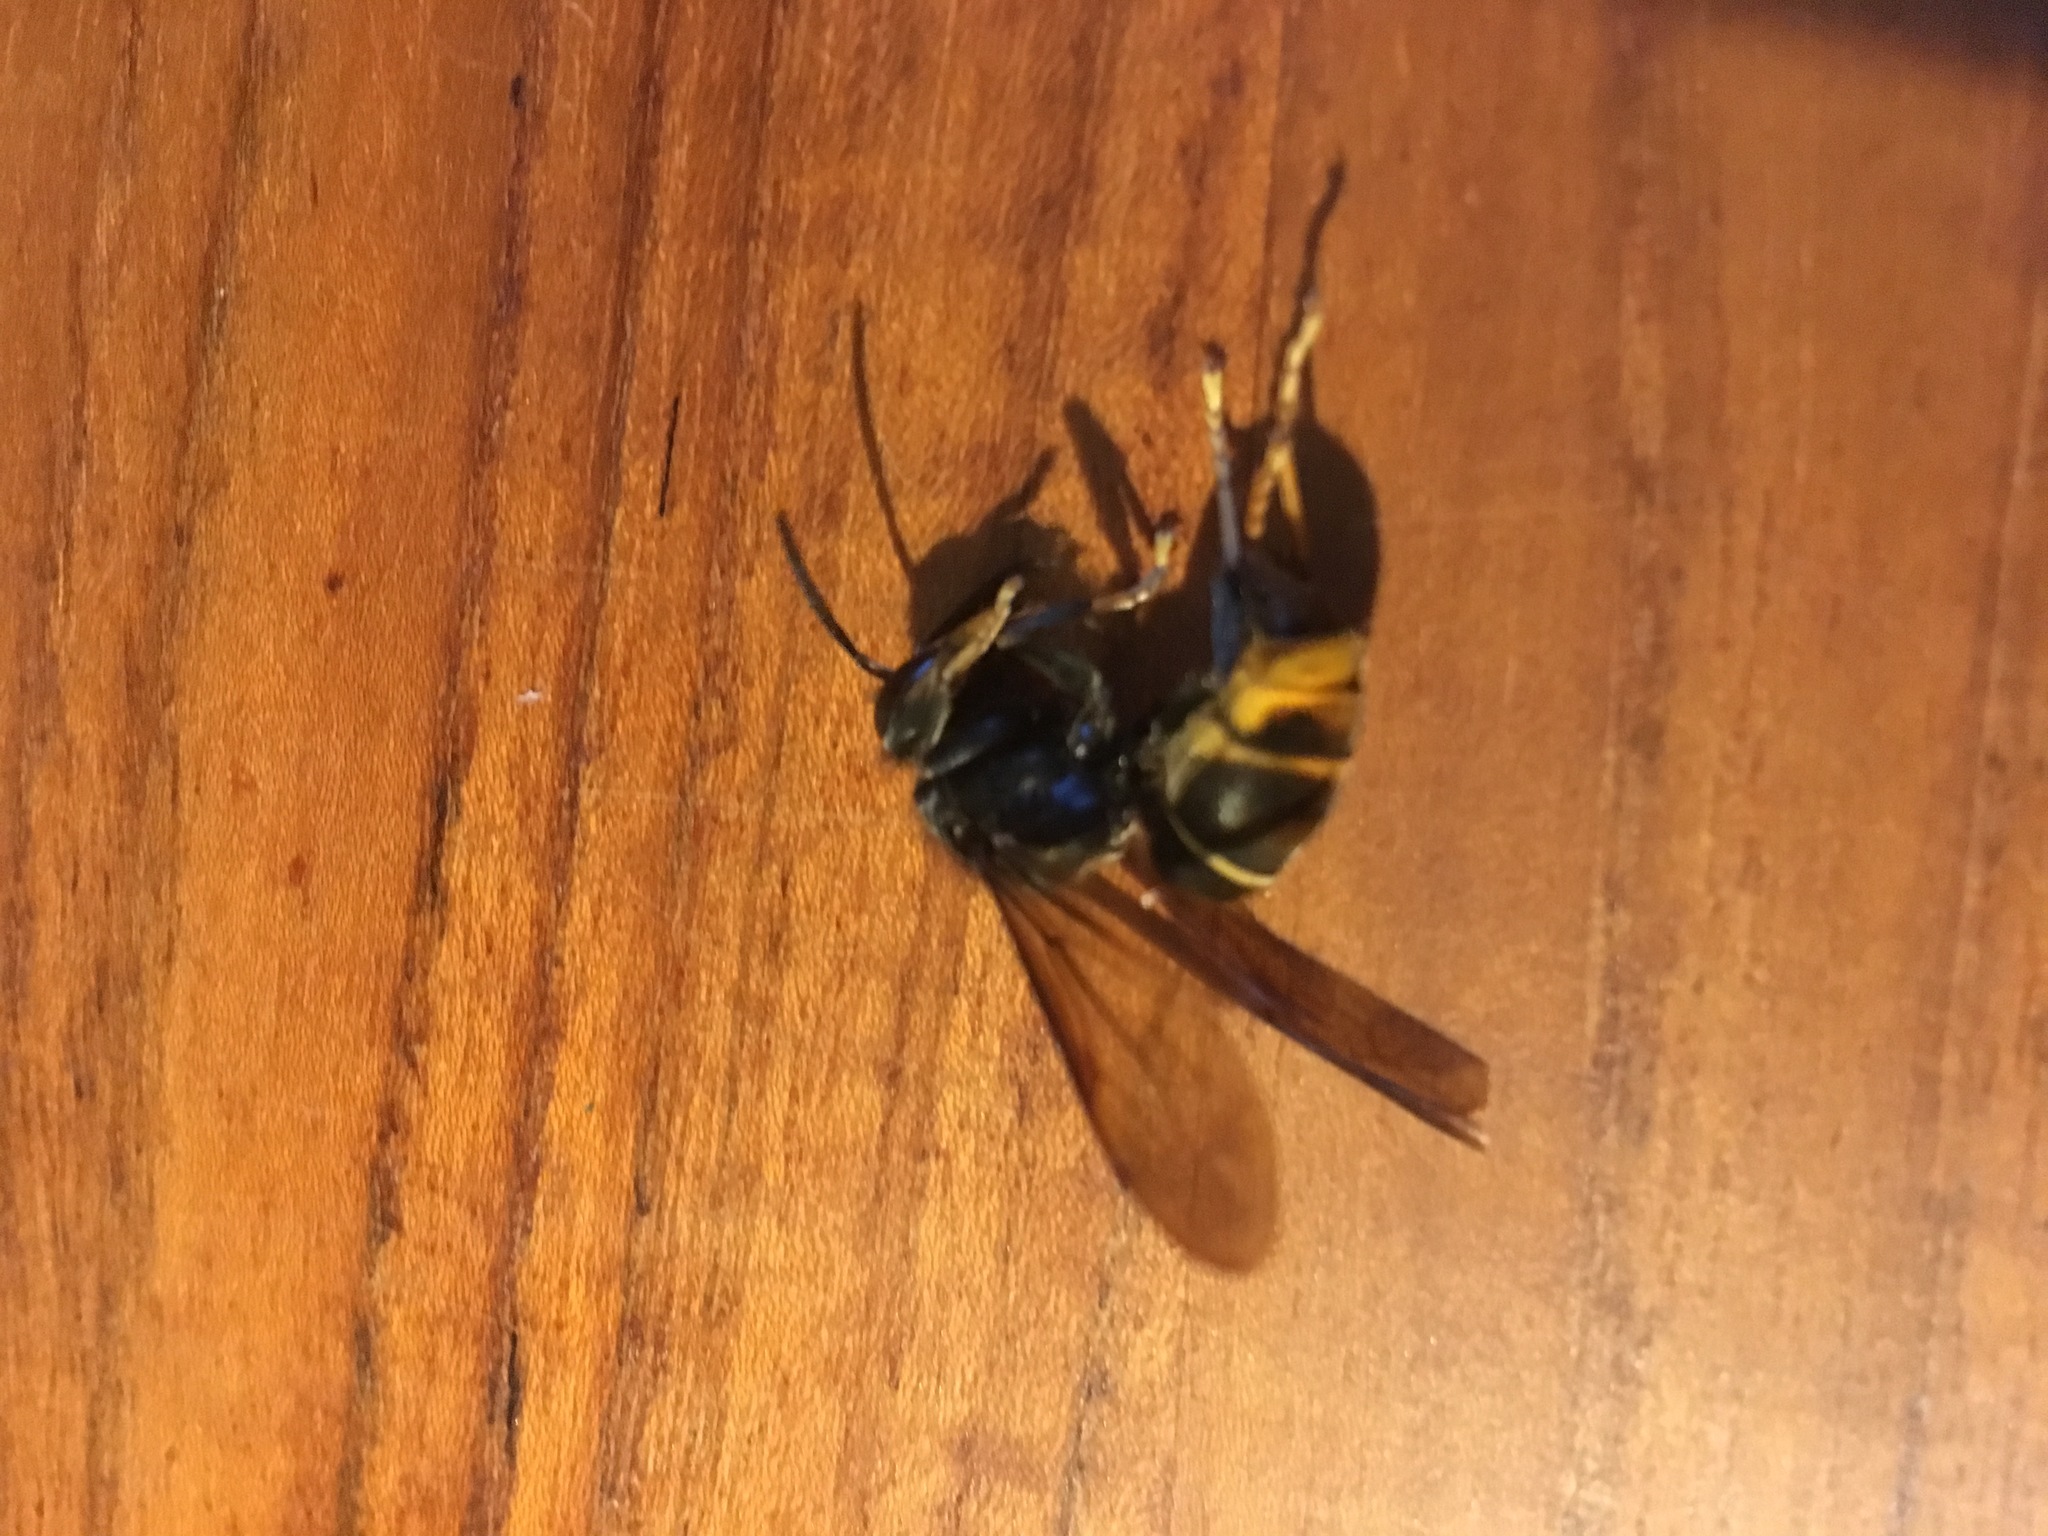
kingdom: Animalia
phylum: Arthropoda
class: Insecta
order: Hymenoptera
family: Vespidae
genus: Vespa
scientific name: Vespa velutina
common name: Asian hornet
